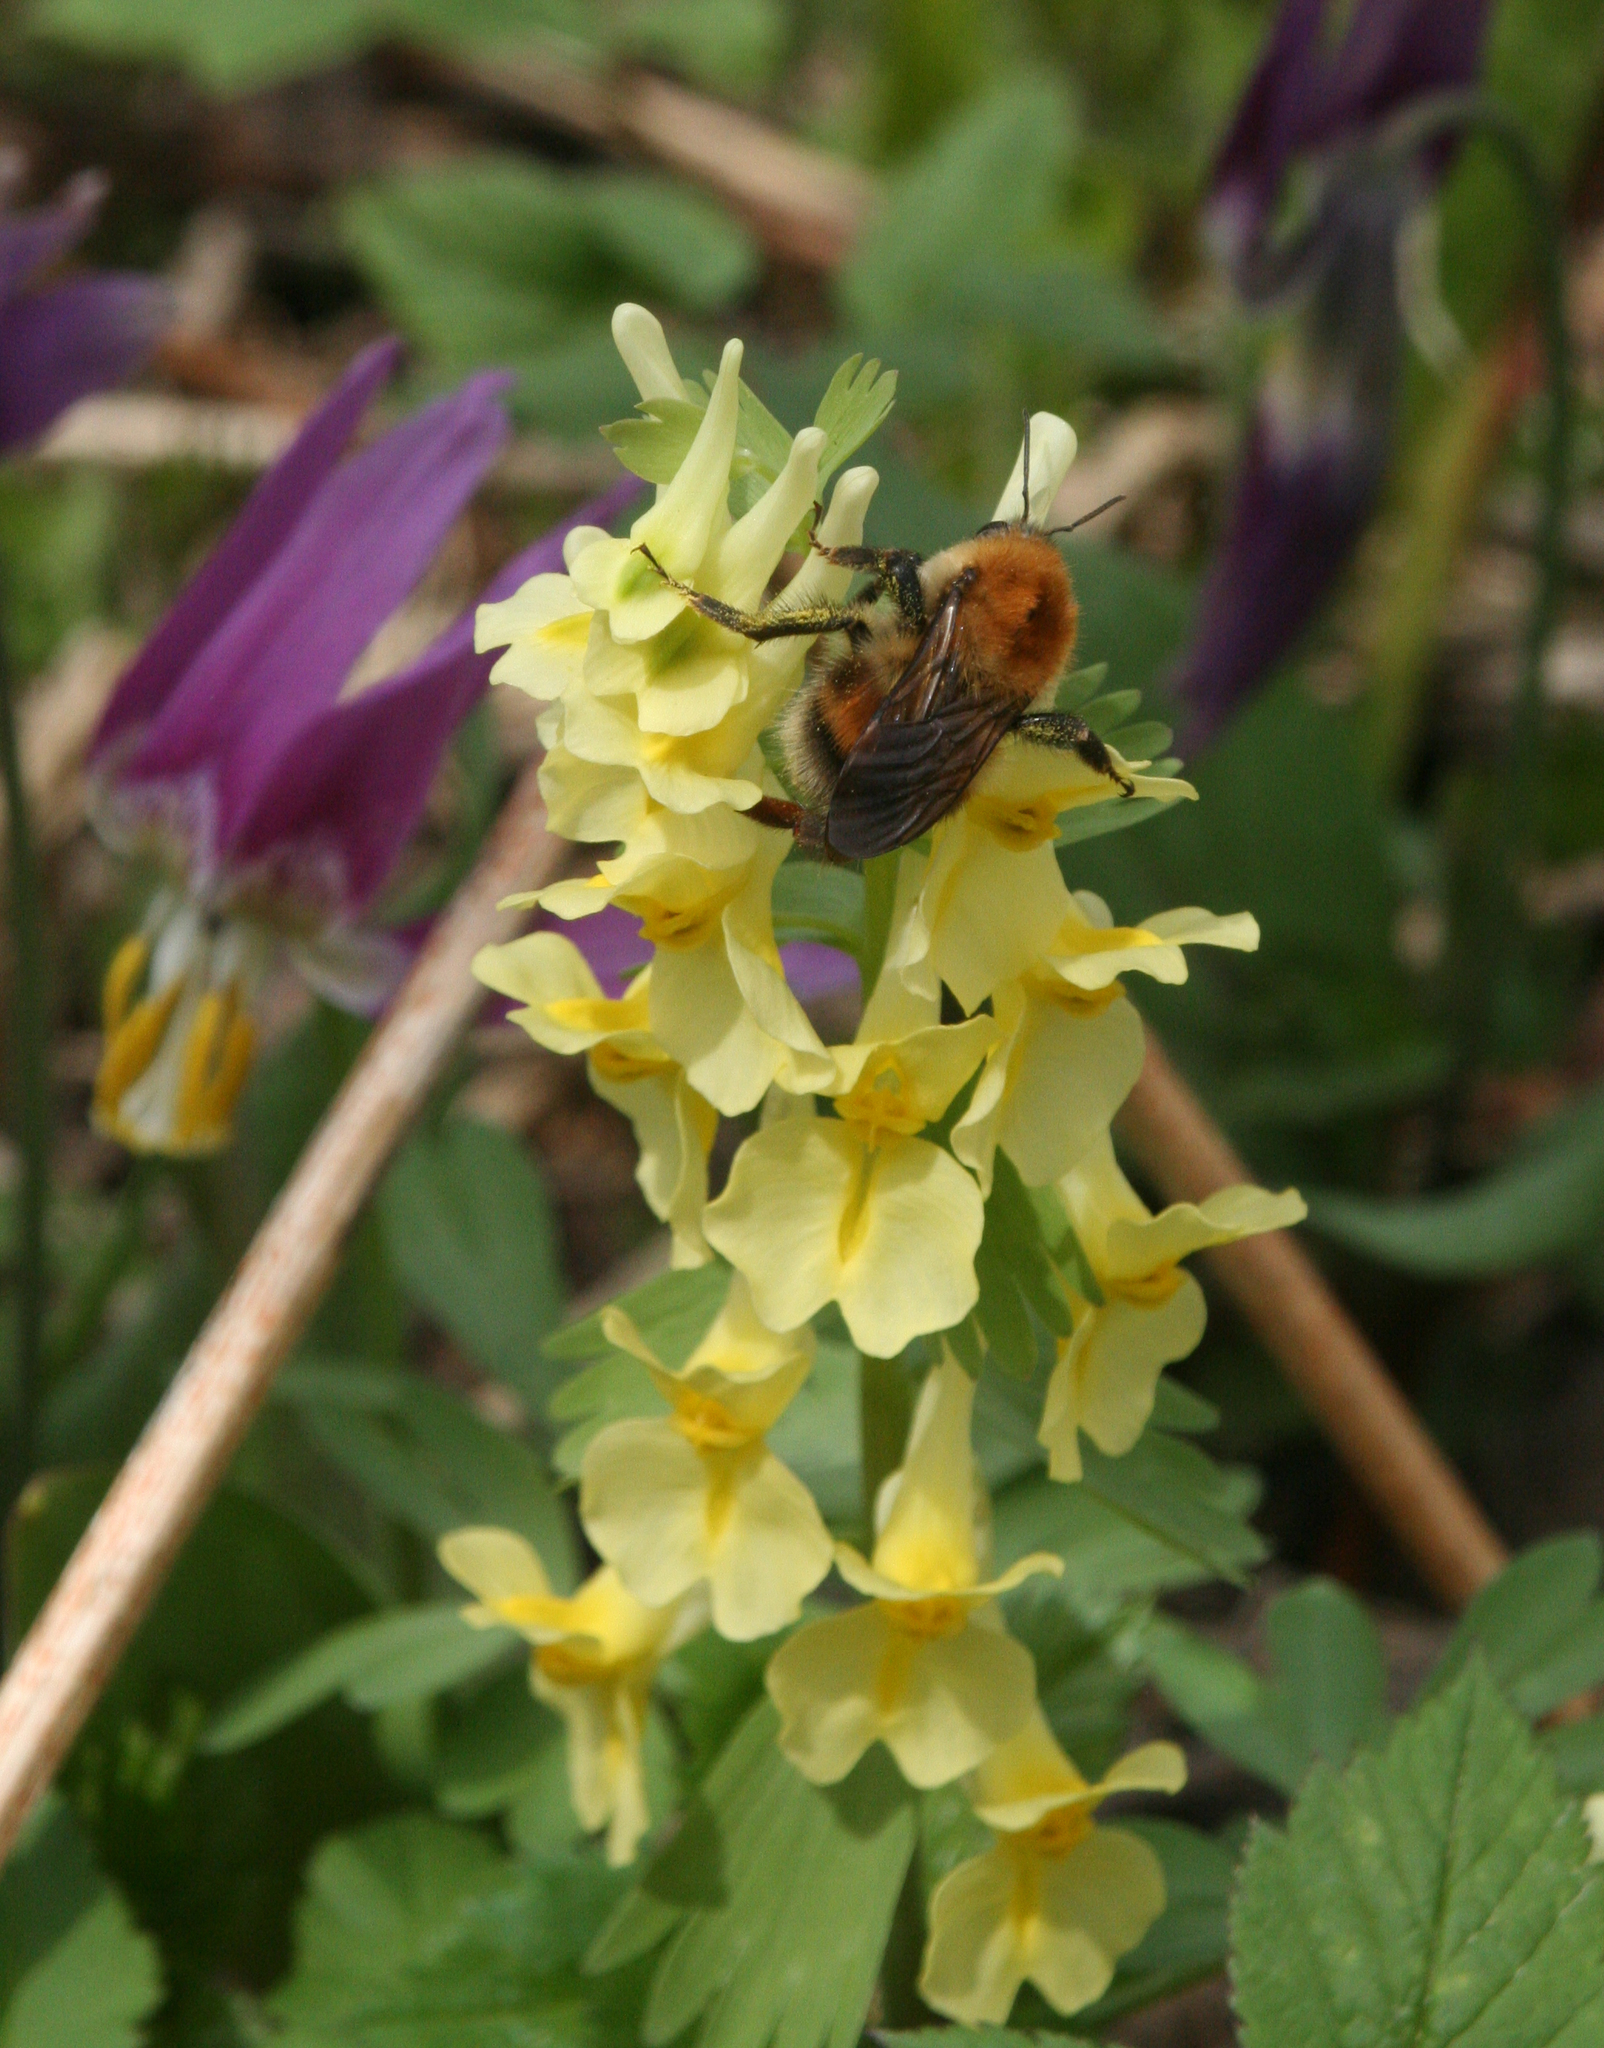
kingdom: Animalia
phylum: Arthropoda
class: Insecta
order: Hymenoptera
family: Apidae
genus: Bombus
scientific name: Bombus consobrinus
